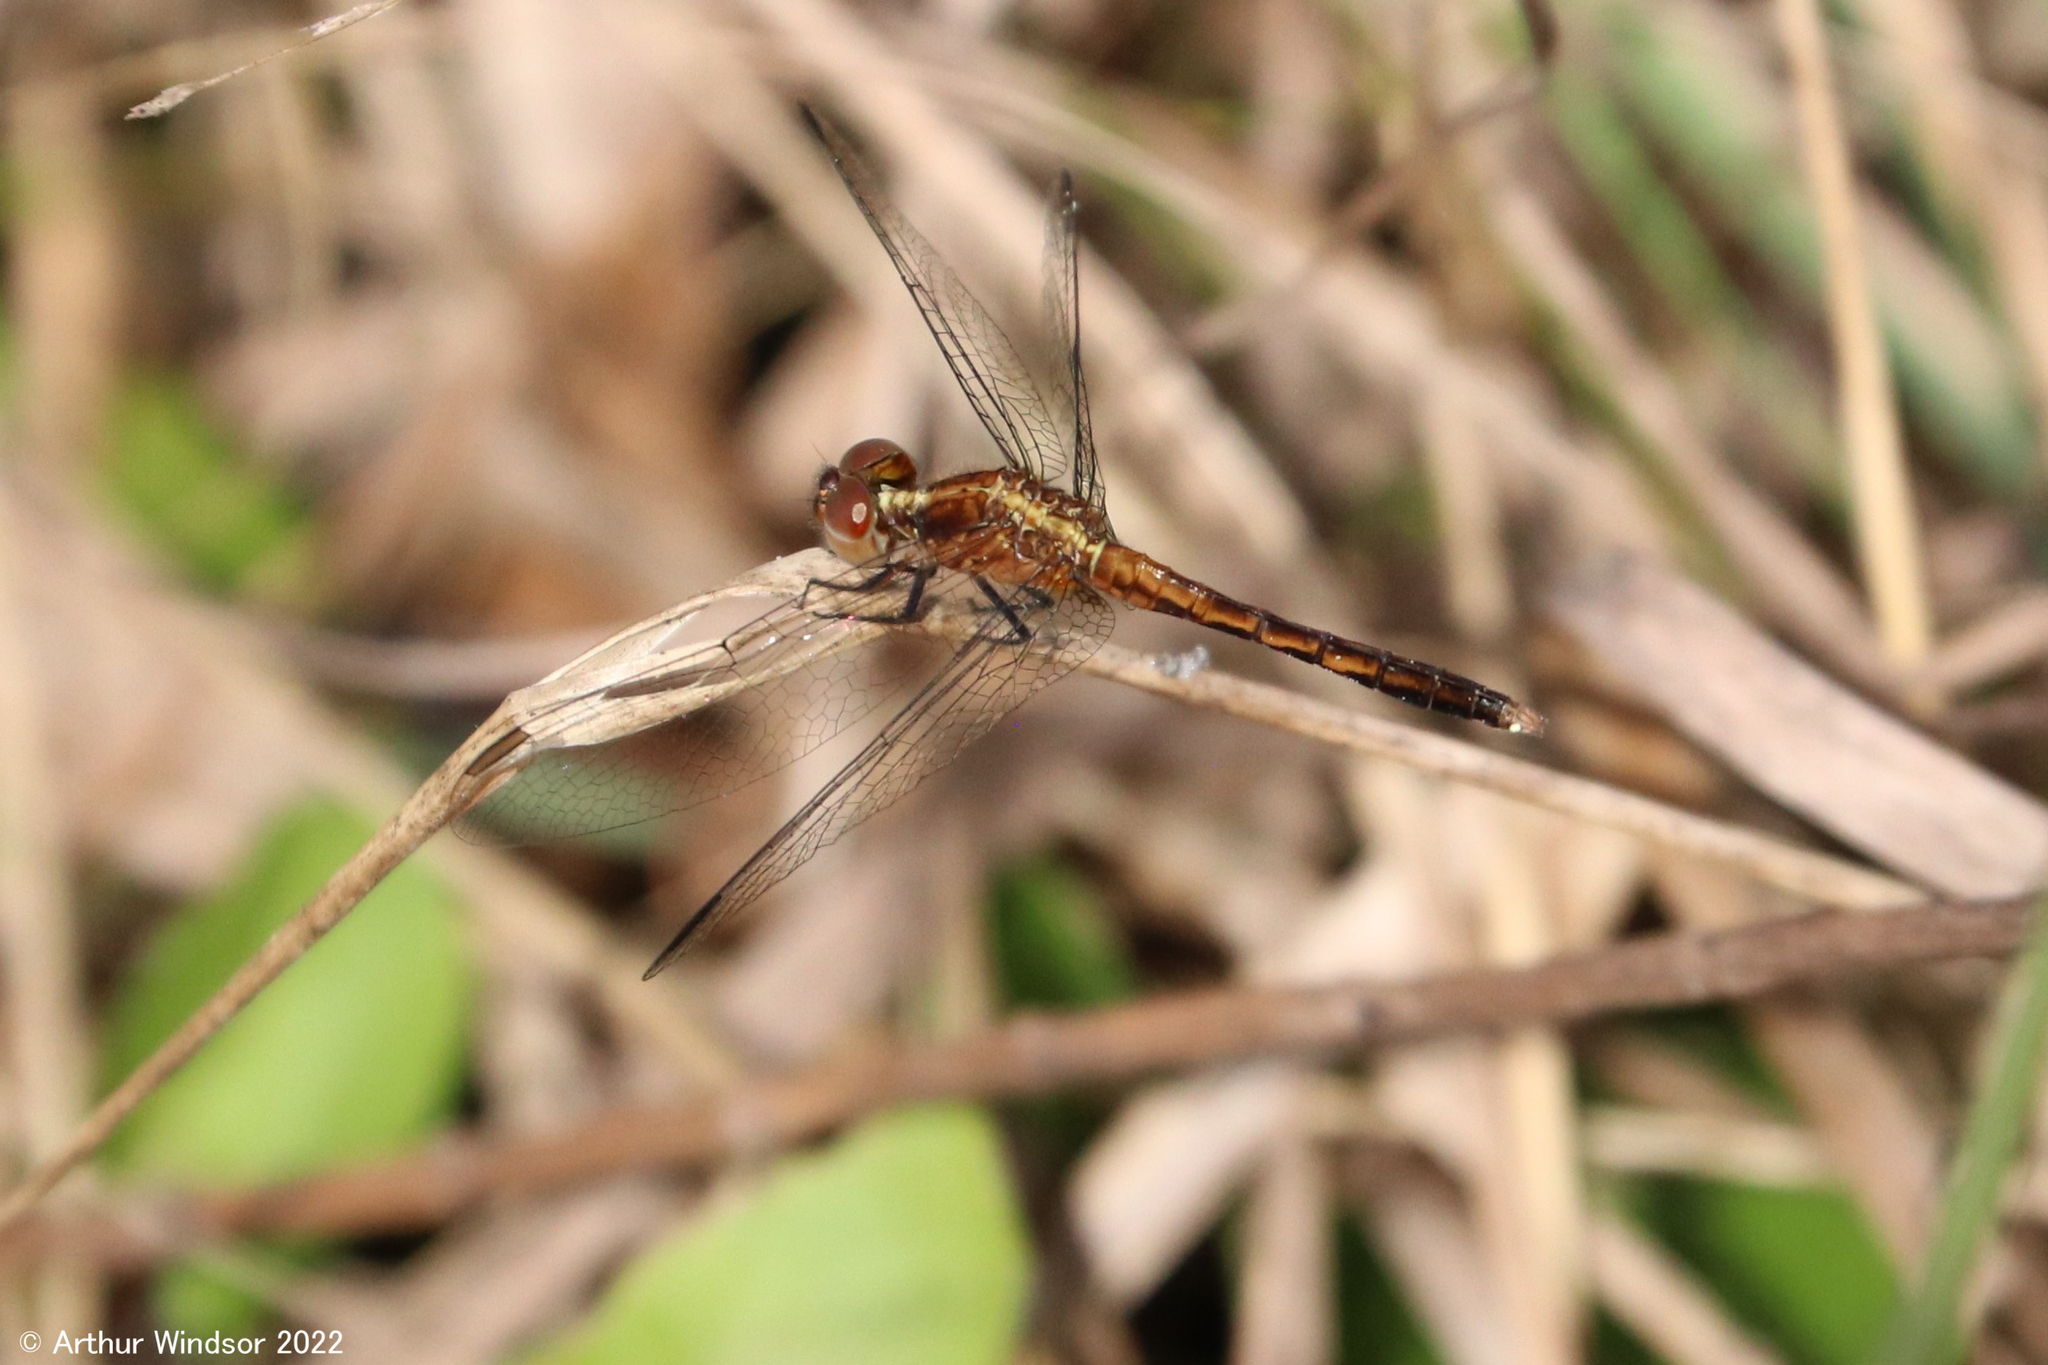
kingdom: Animalia
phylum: Arthropoda
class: Insecta
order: Odonata
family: Libellulidae
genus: Erythrodiplax
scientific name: Erythrodiplax minuscula
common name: Little blue dragonlet
